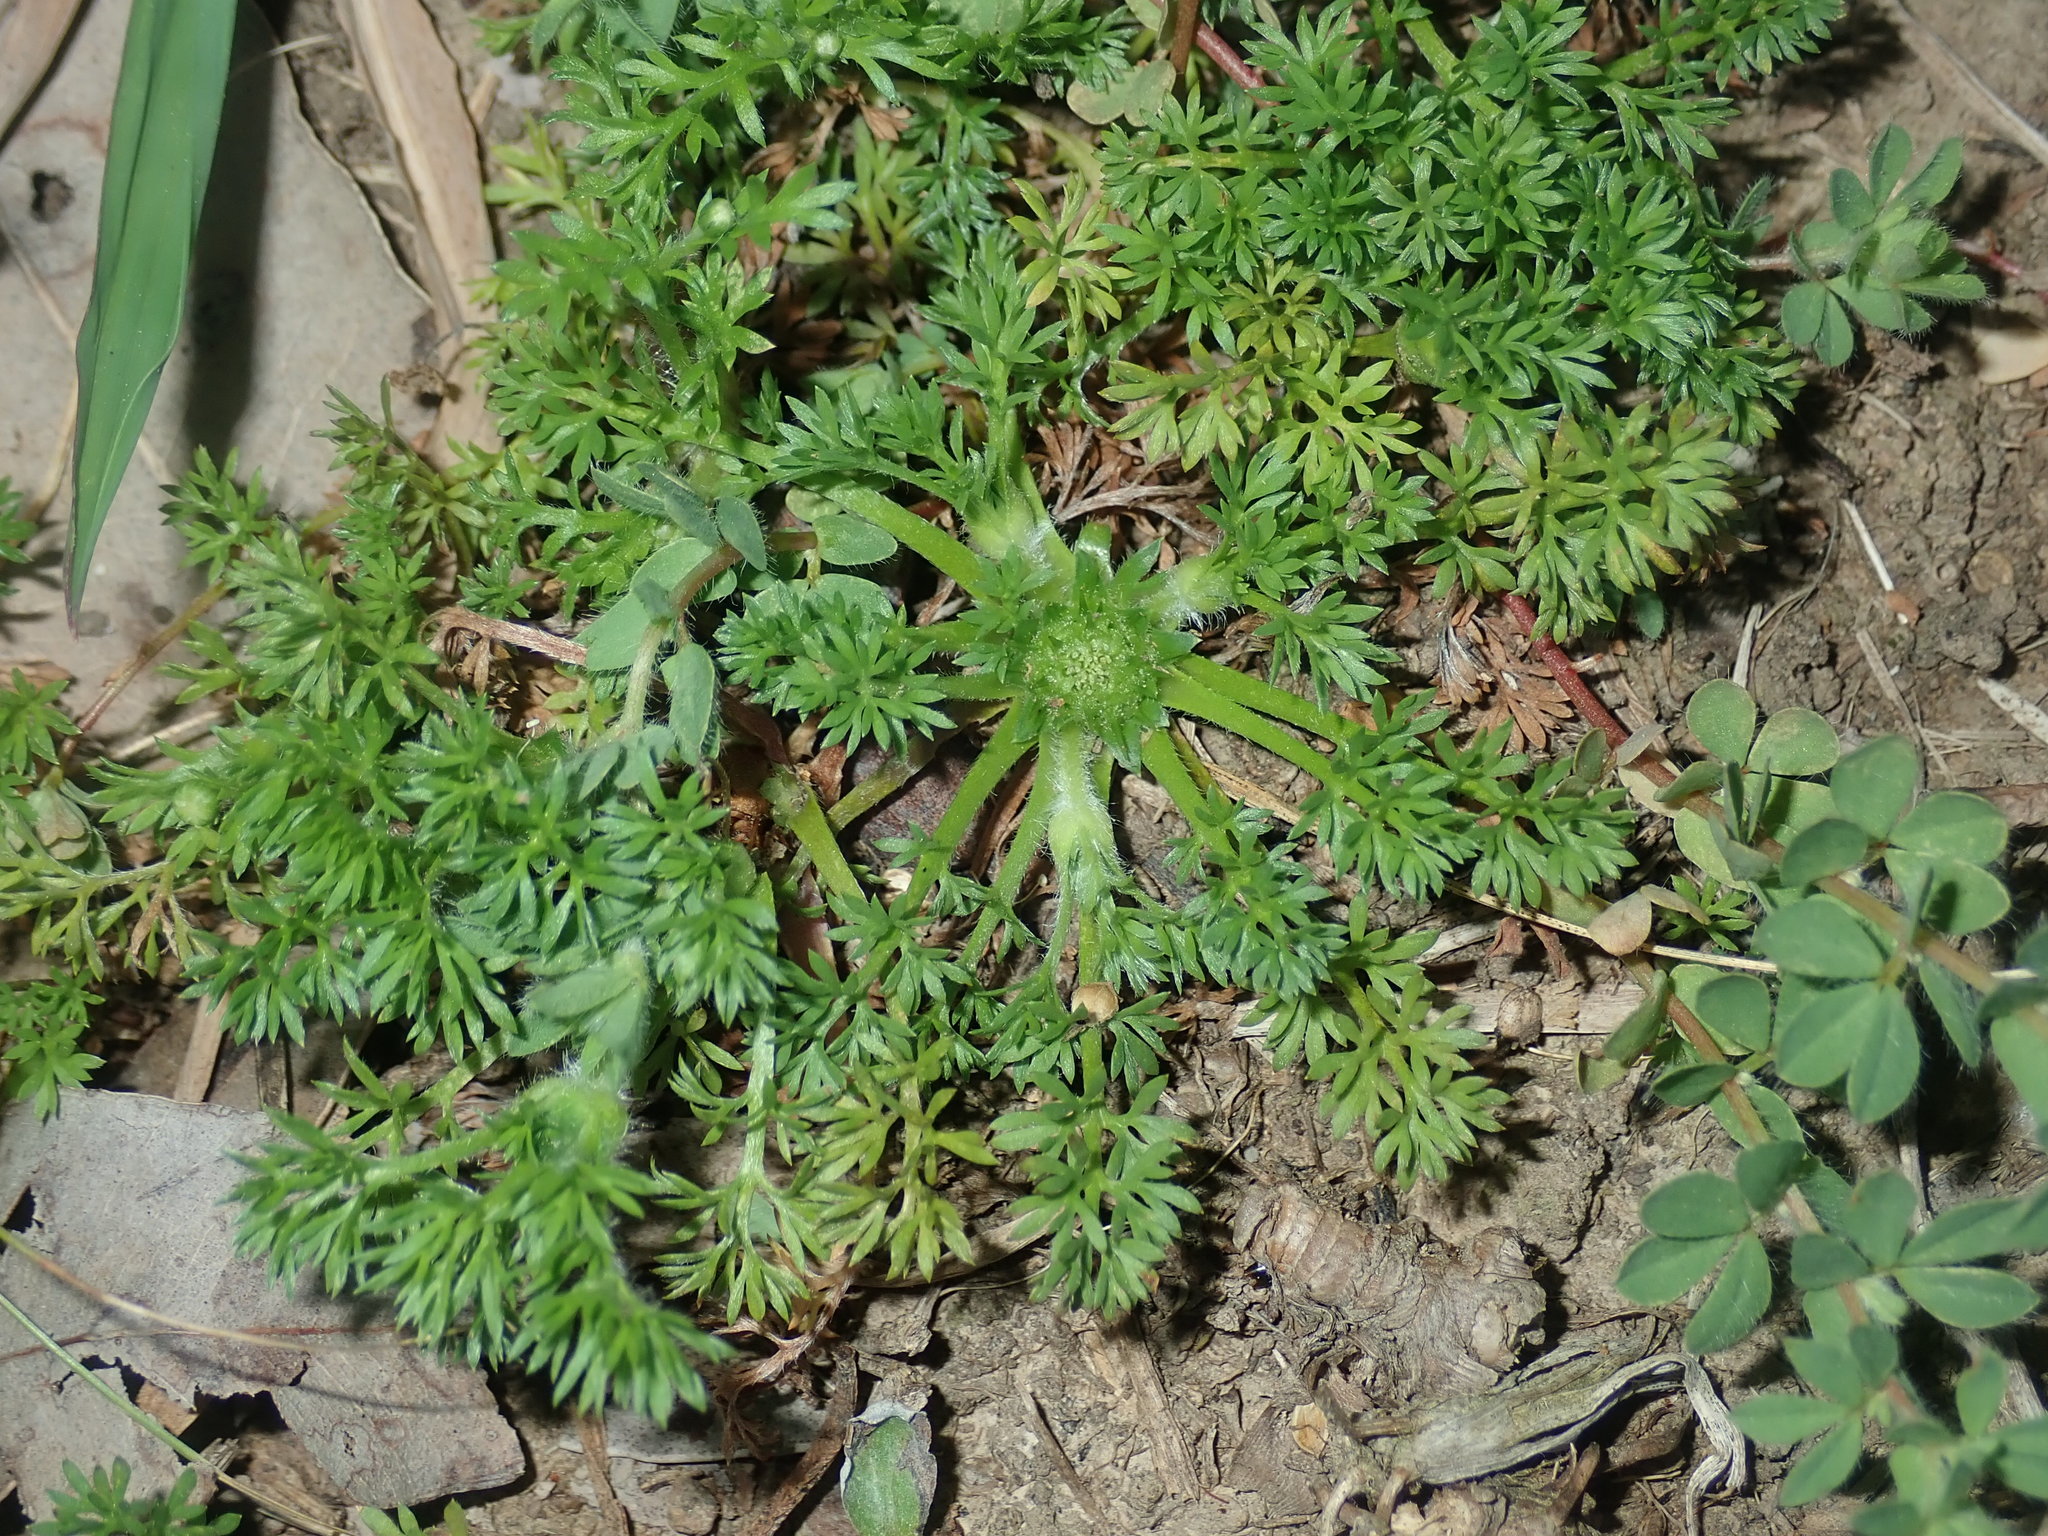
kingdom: Plantae
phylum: Tracheophyta
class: Magnoliopsida
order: Asterales
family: Asteraceae
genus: Soliva
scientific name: Soliva sessilis
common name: Field burrweed
